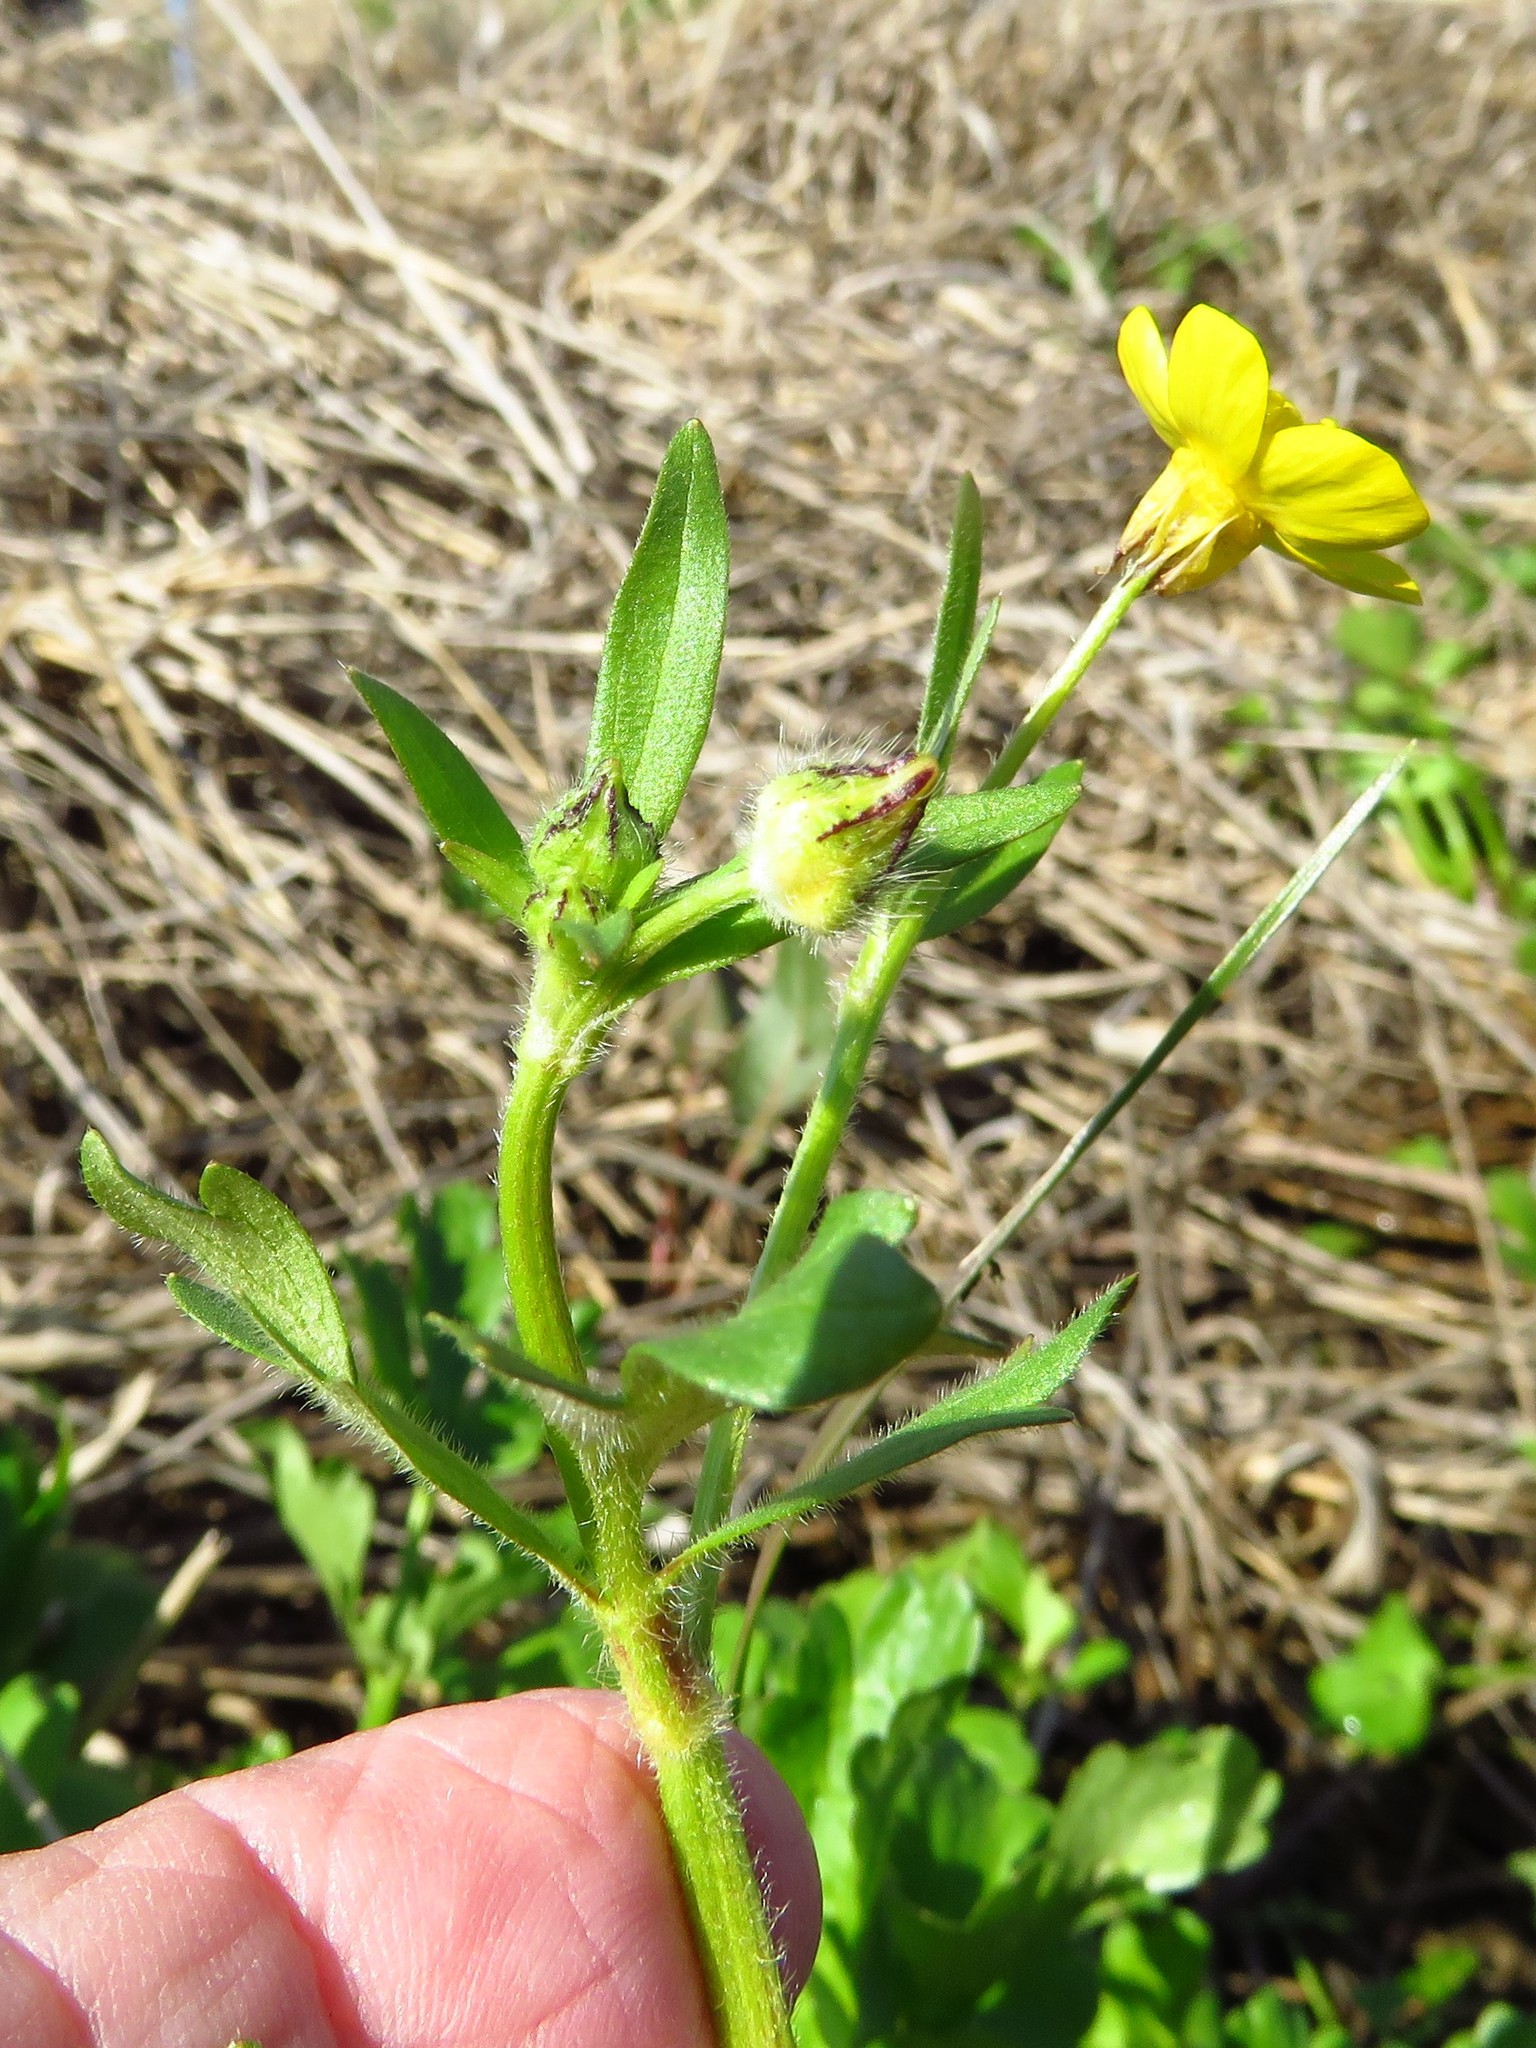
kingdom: Plantae
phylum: Tracheophyta
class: Magnoliopsida
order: Ranunculales
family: Ranunculaceae
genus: Ranunculus
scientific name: Ranunculus sardous
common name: Hairy buttercup
